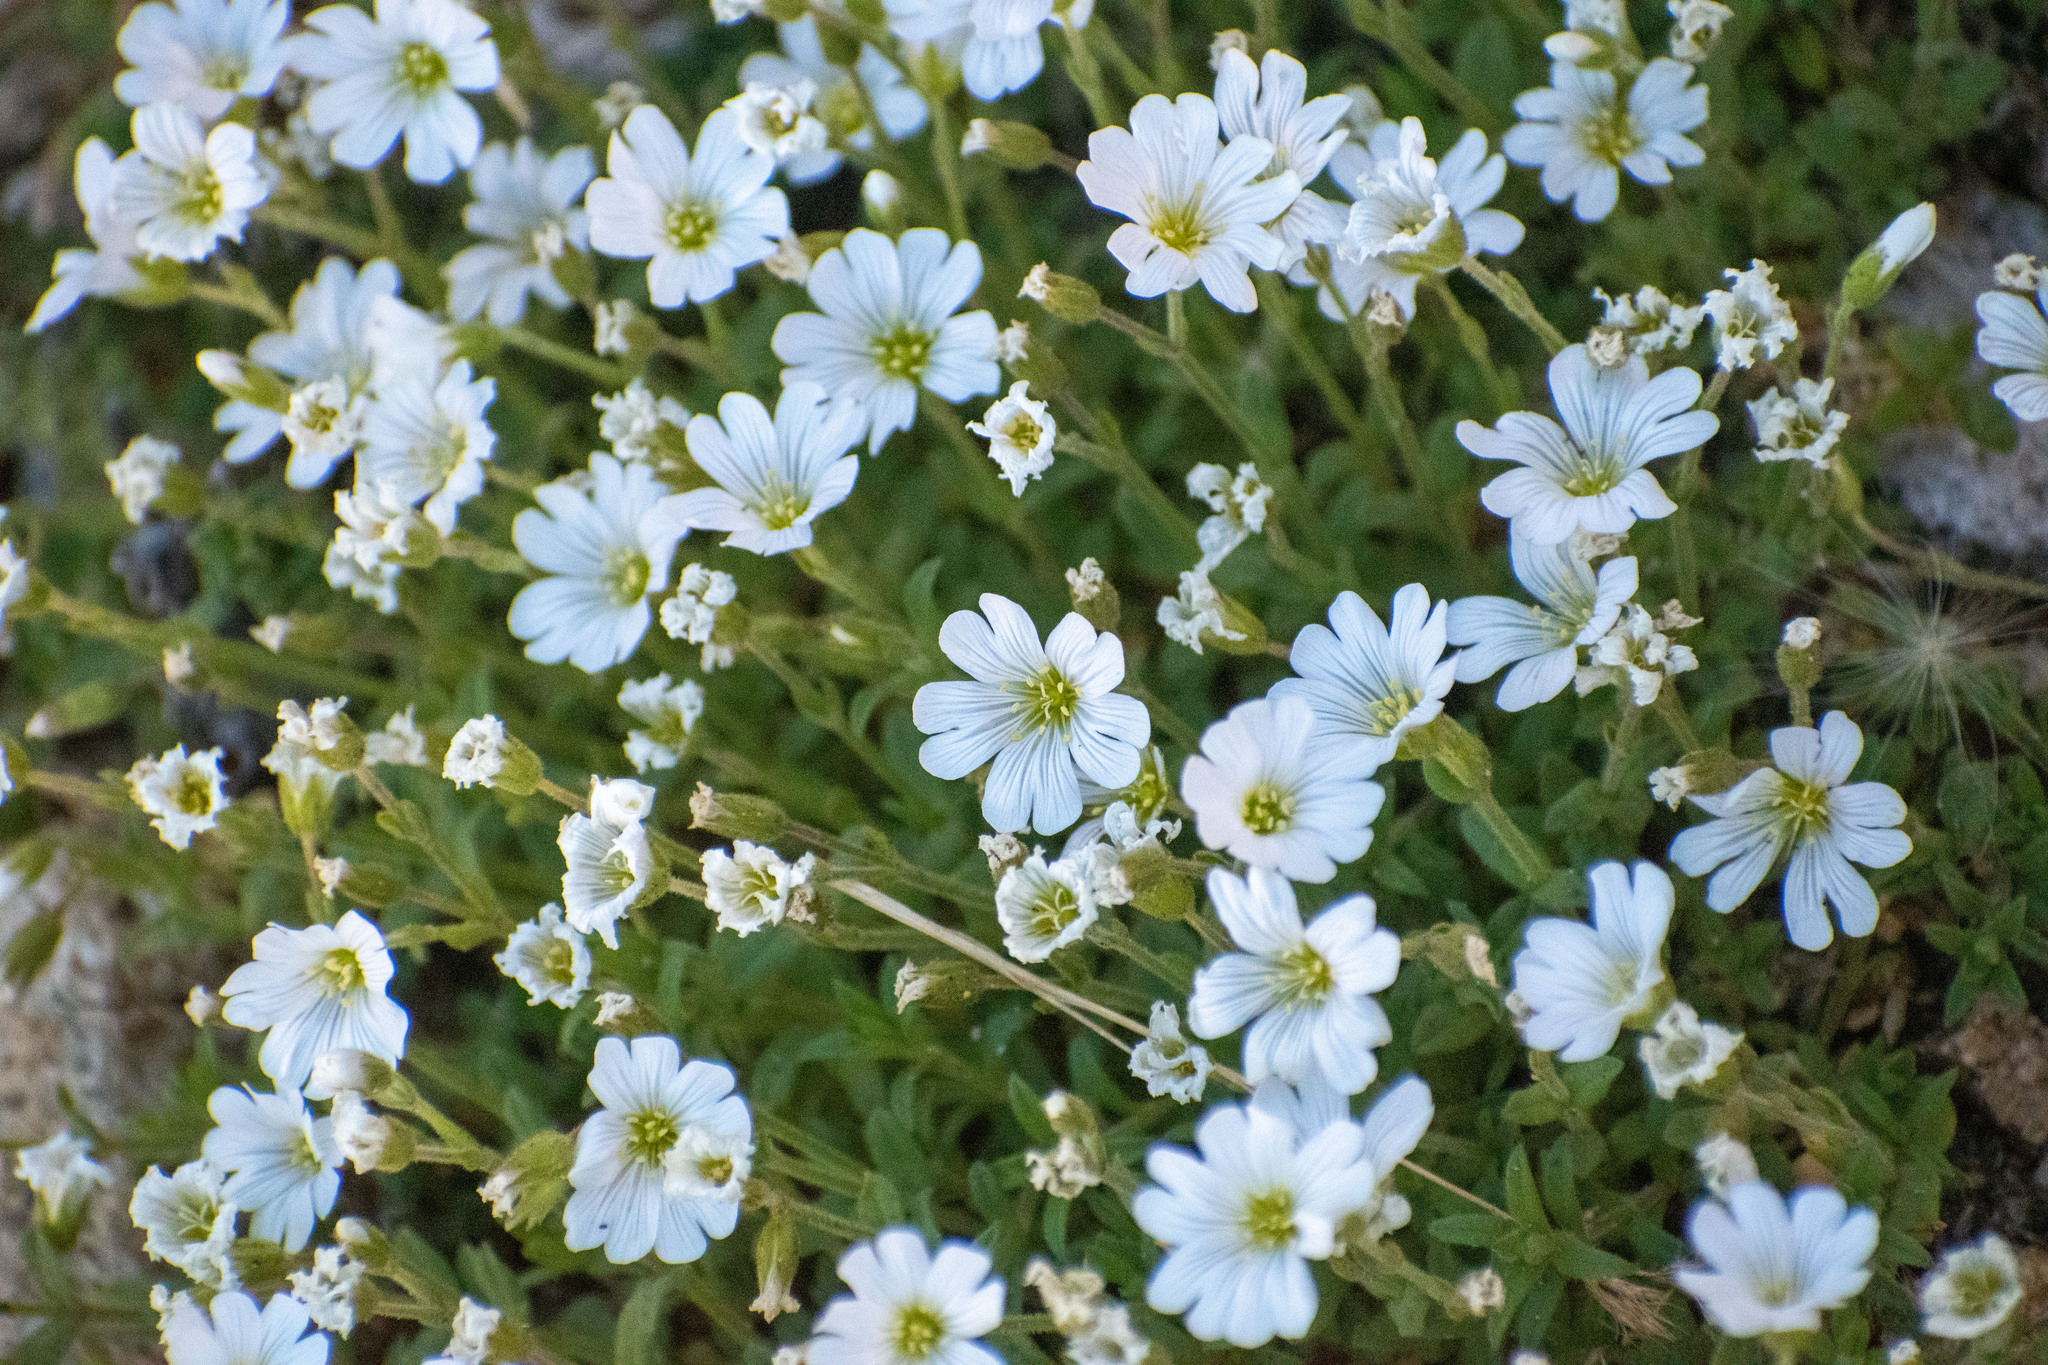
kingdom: Plantae
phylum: Tracheophyta
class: Magnoliopsida
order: Caryophyllales
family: Caryophyllaceae
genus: Cerastium
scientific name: Cerastium arvense
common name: Field mouse-ear
